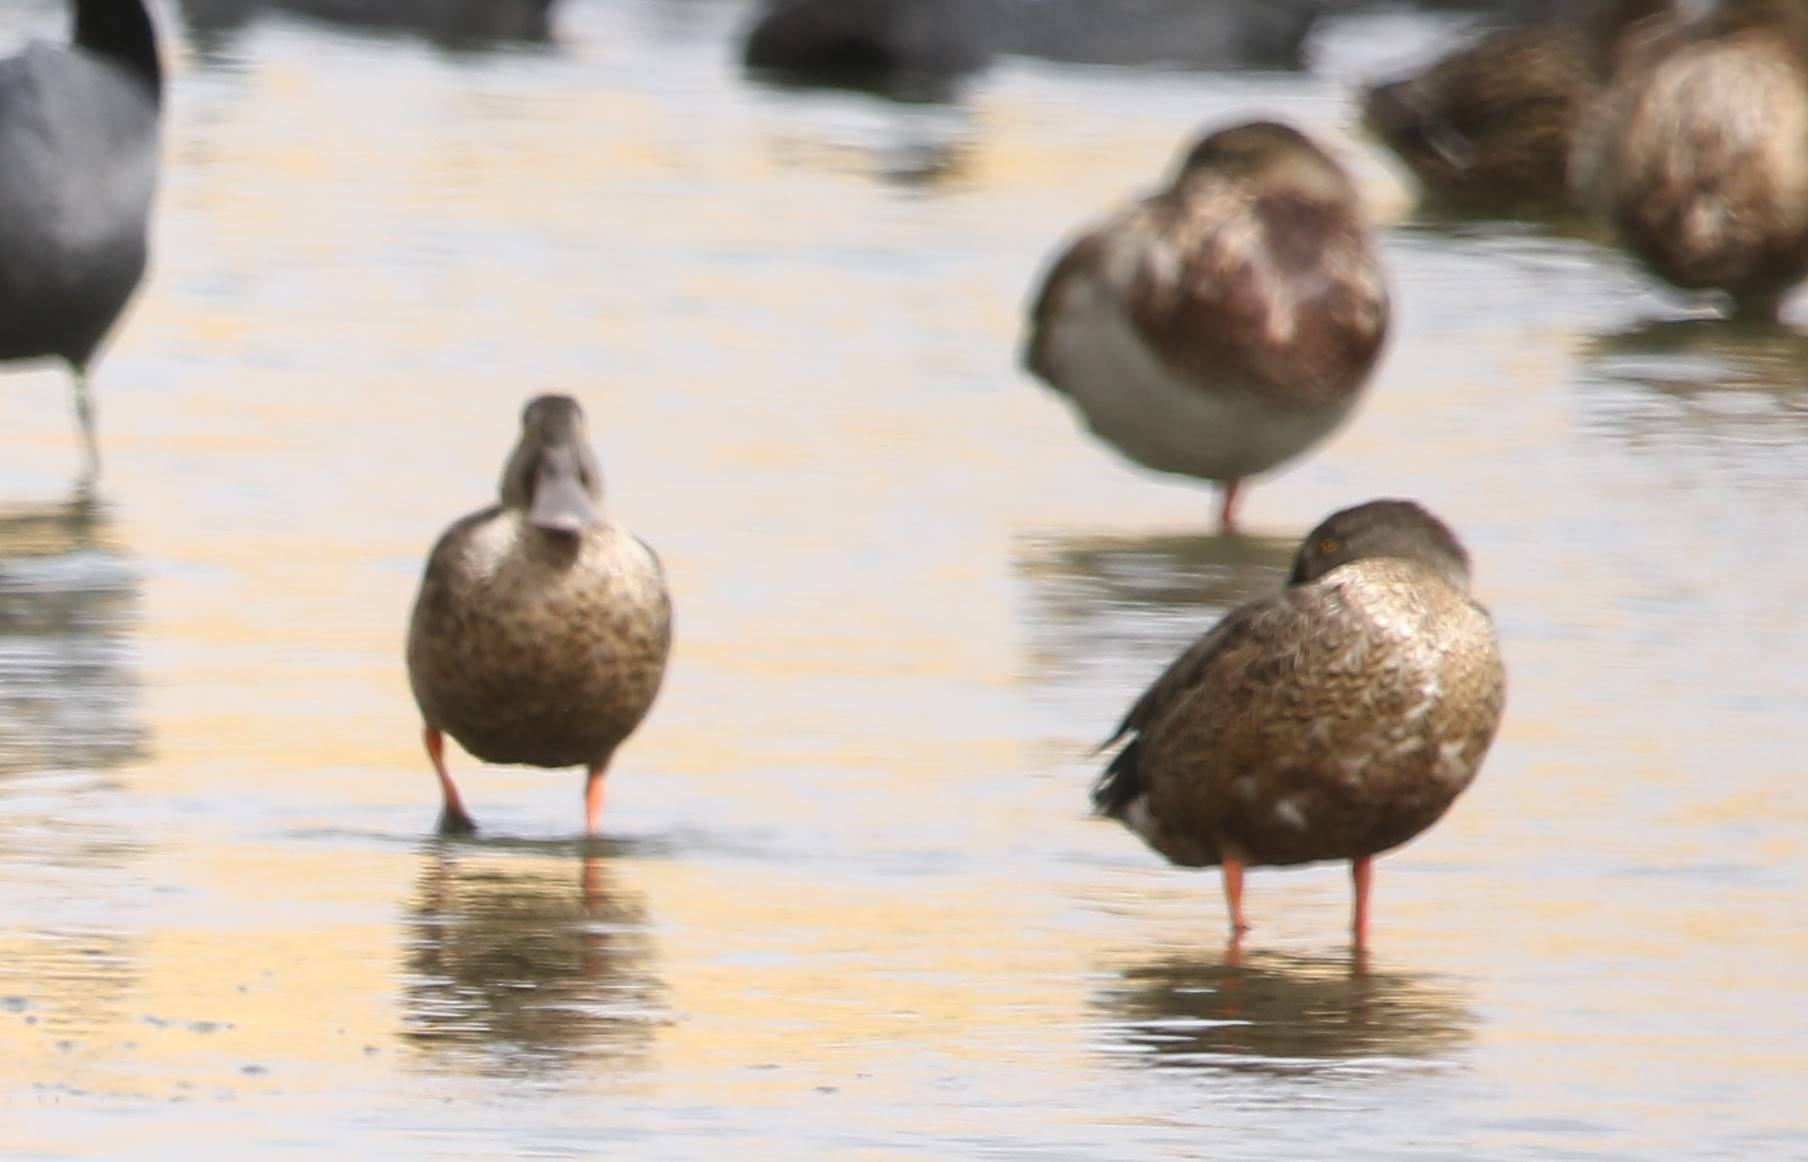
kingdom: Animalia
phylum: Chordata
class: Aves
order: Anseriformes
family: Anatidae
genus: Spatula
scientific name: Spatula clypeata
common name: Northern shoveler
